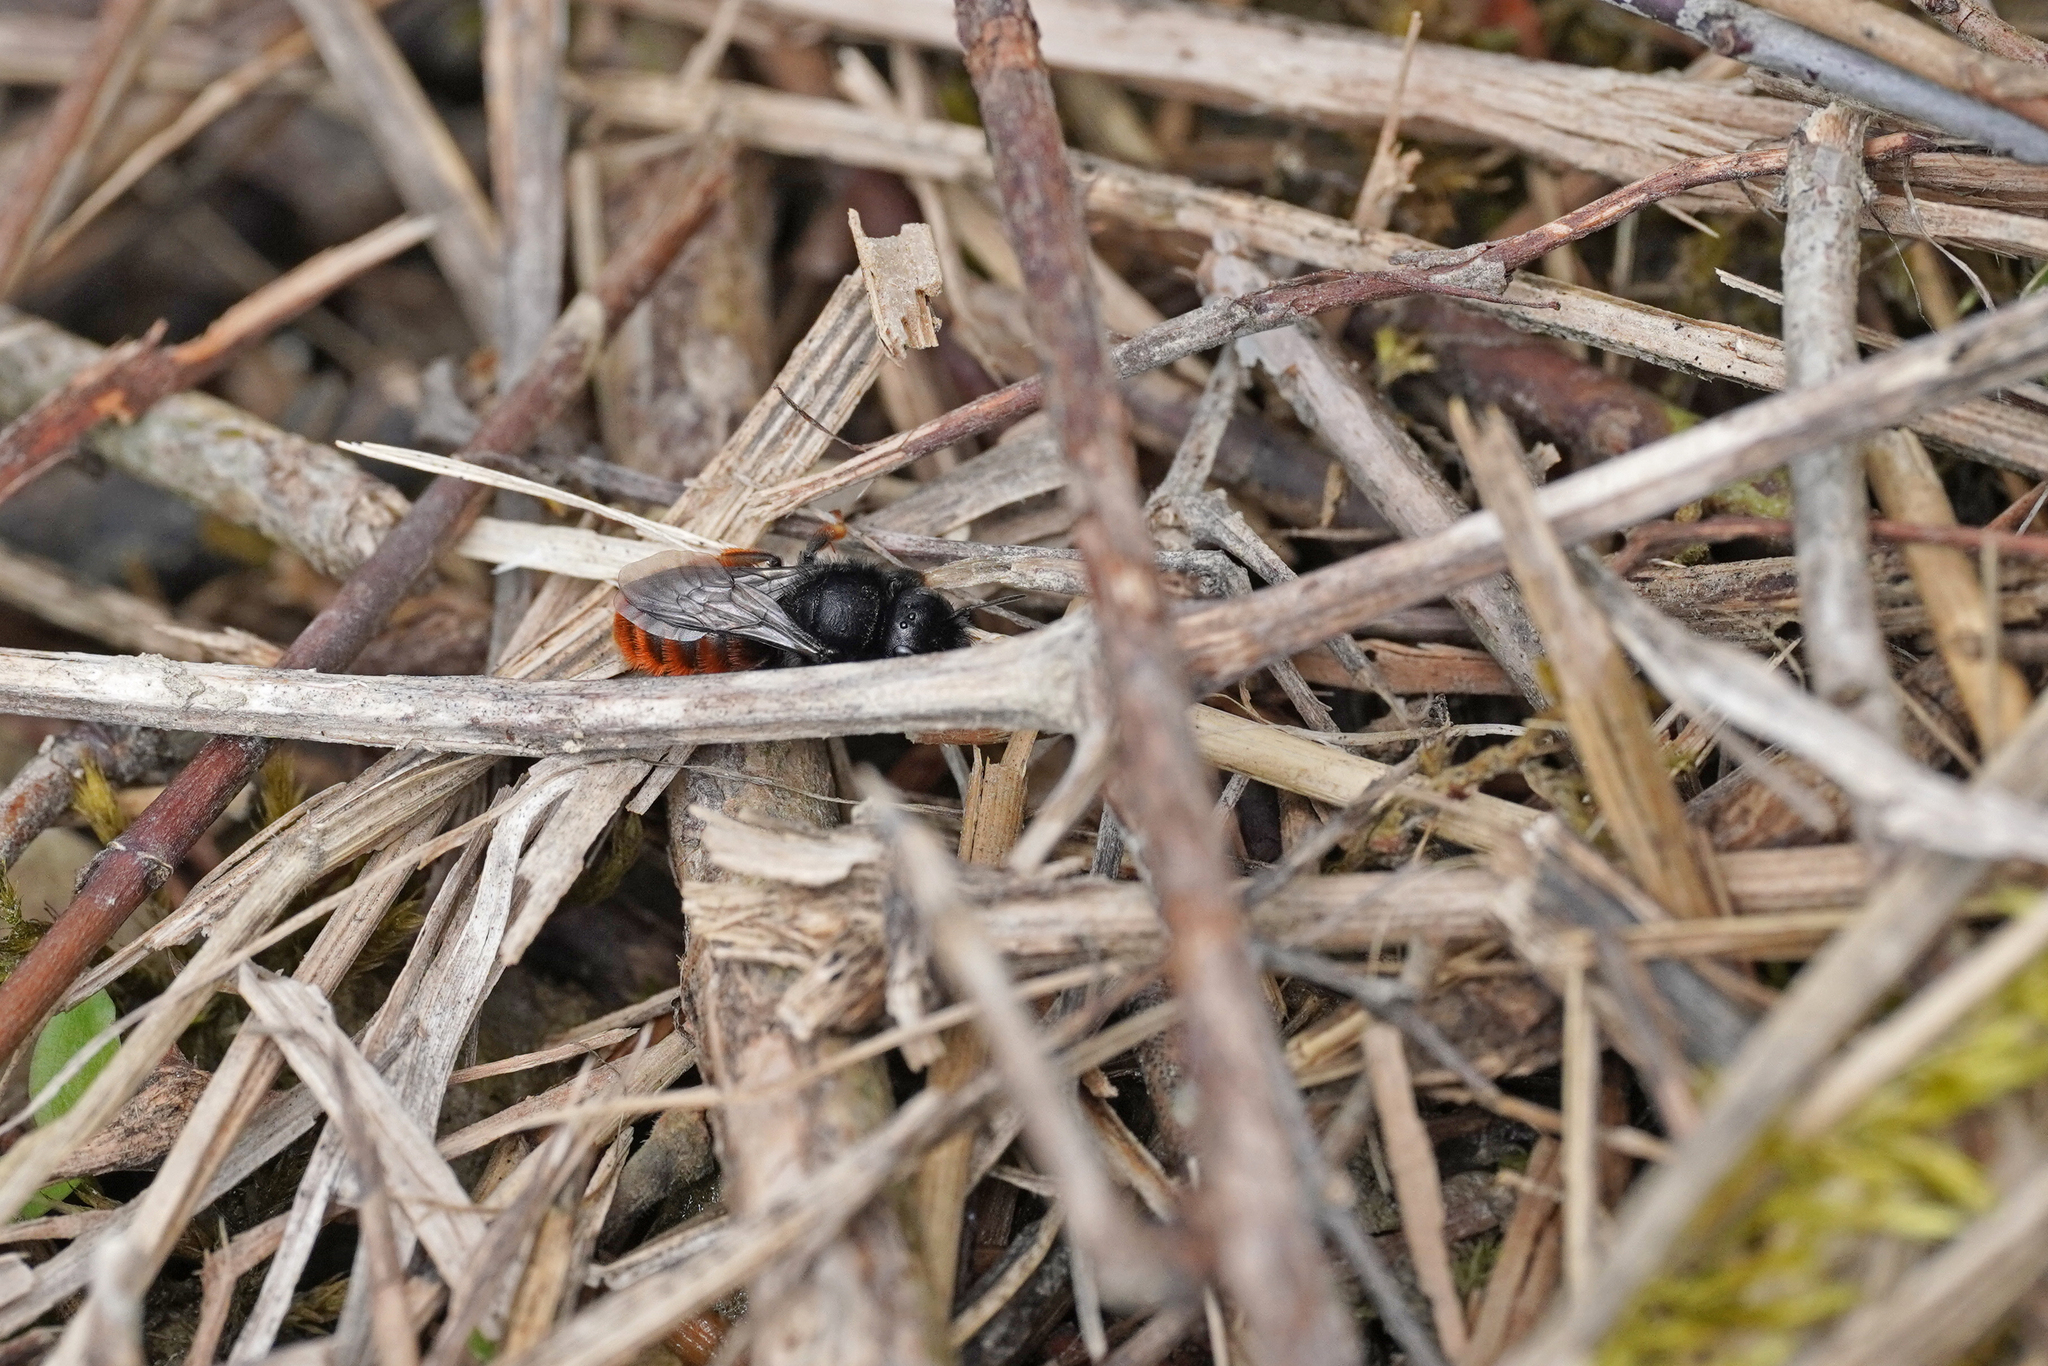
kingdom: Animalia
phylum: Arthropoda
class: Insecta
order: Hymenoptera
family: Megachilidae
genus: Osmia
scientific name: Osmia bicolor
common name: Red-tailed mason bee
